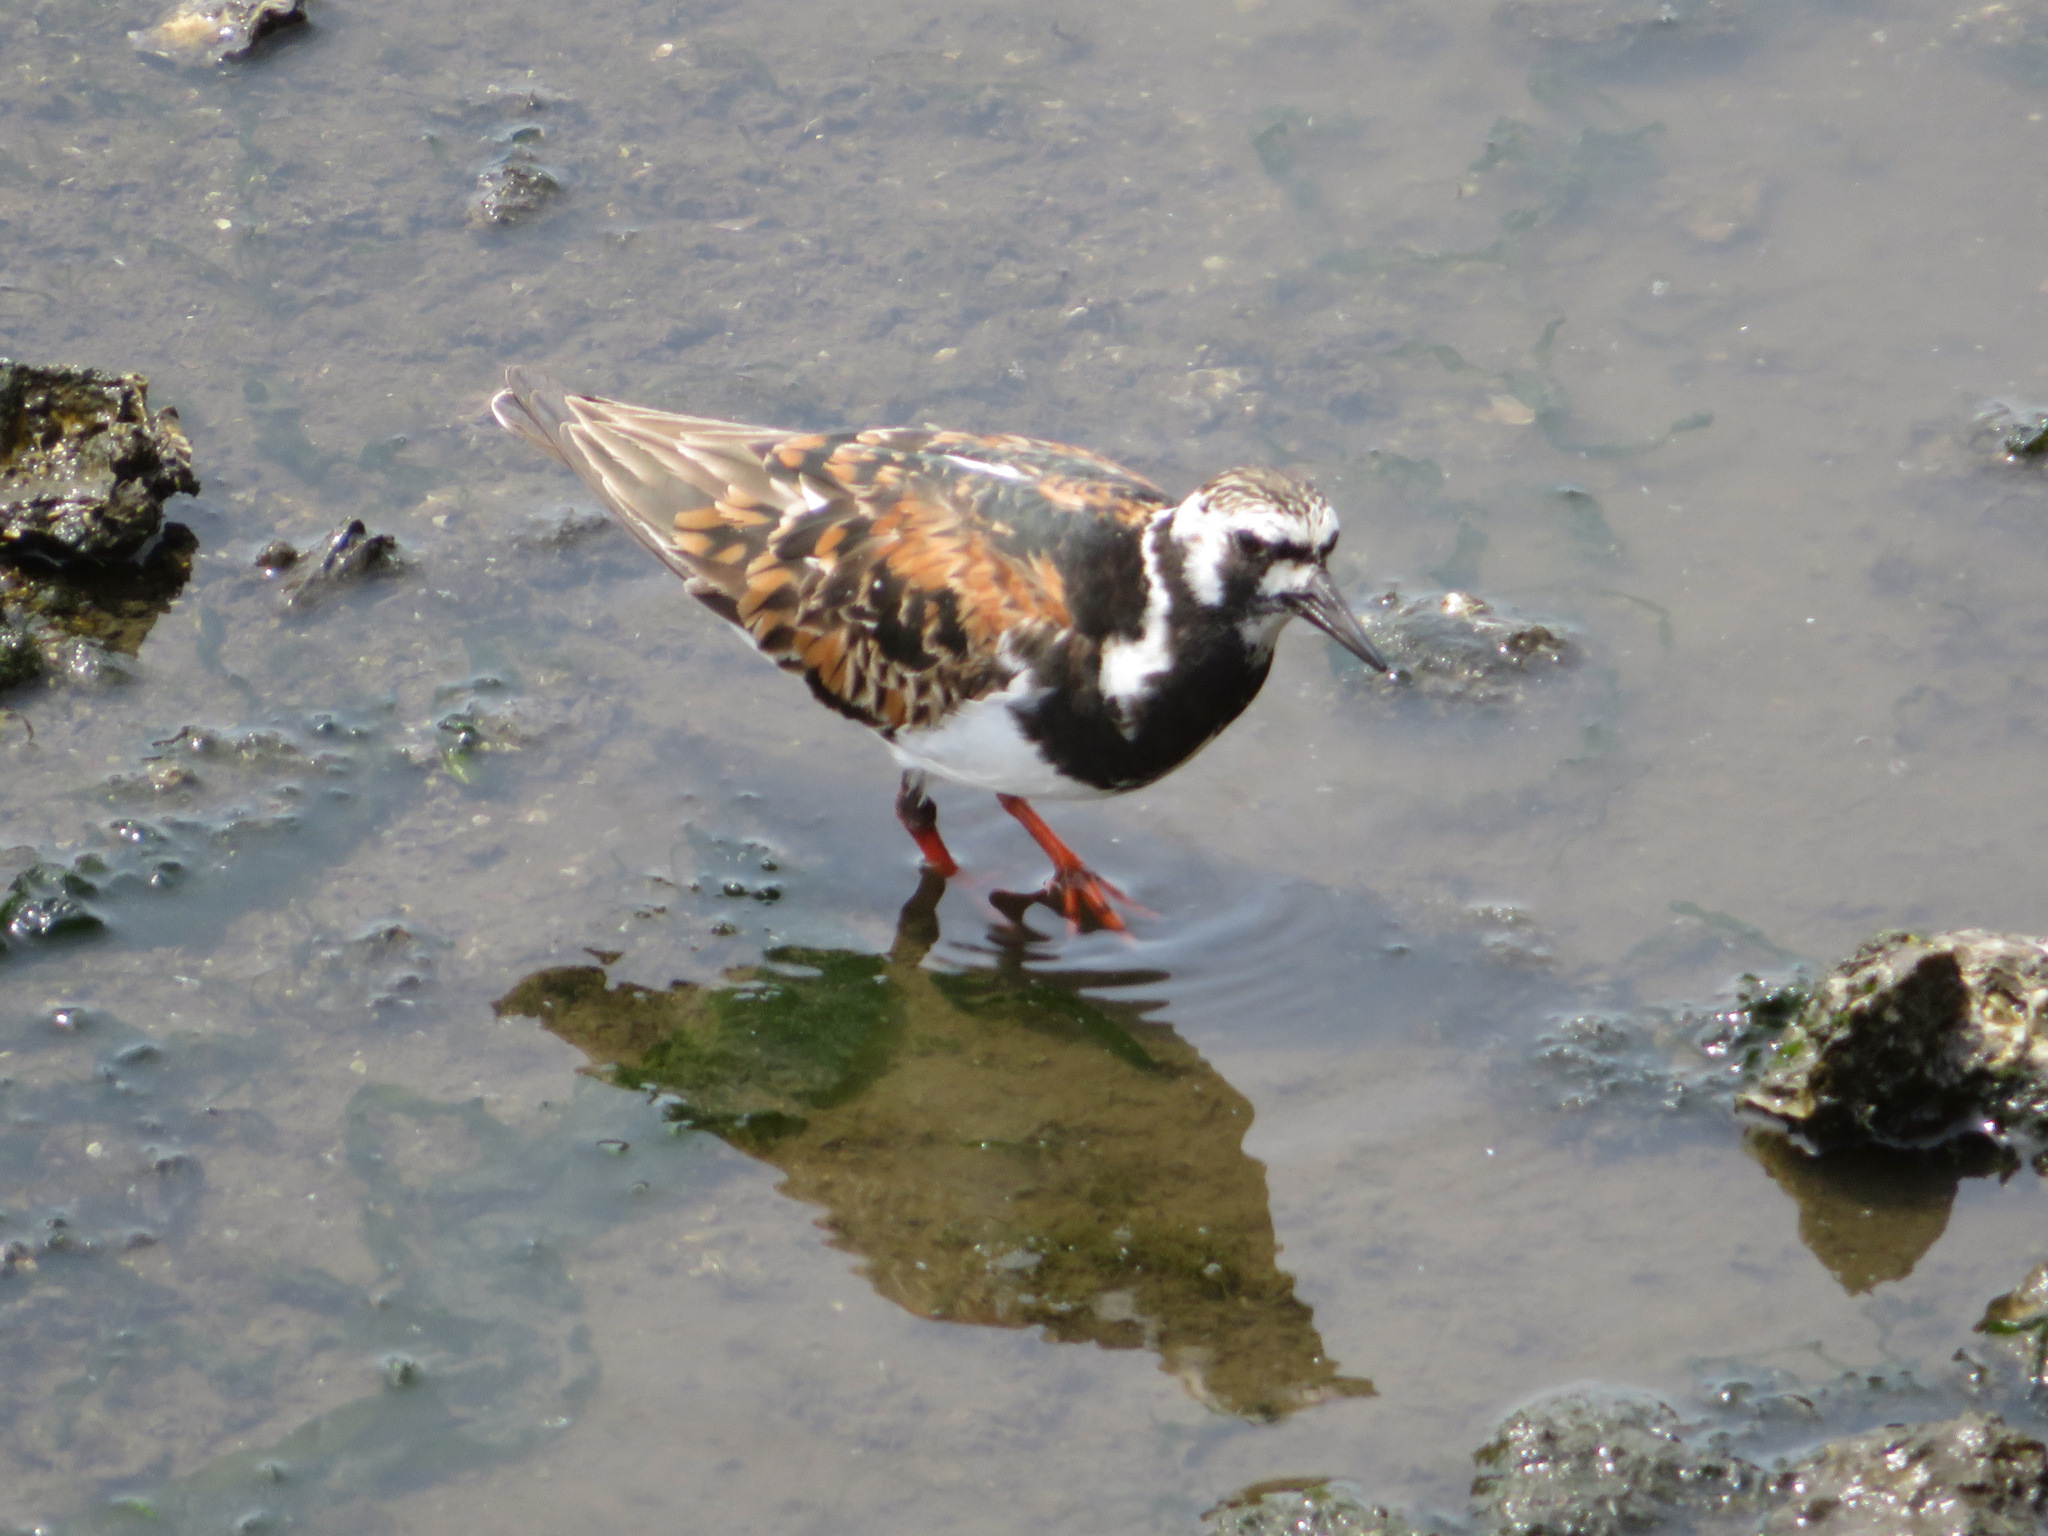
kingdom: Animalia
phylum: Chordata
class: Aves
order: Charadriiformes
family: Scolopacidae
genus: Arenaria
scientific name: Arenaria interpres
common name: Ruddy turnstone
